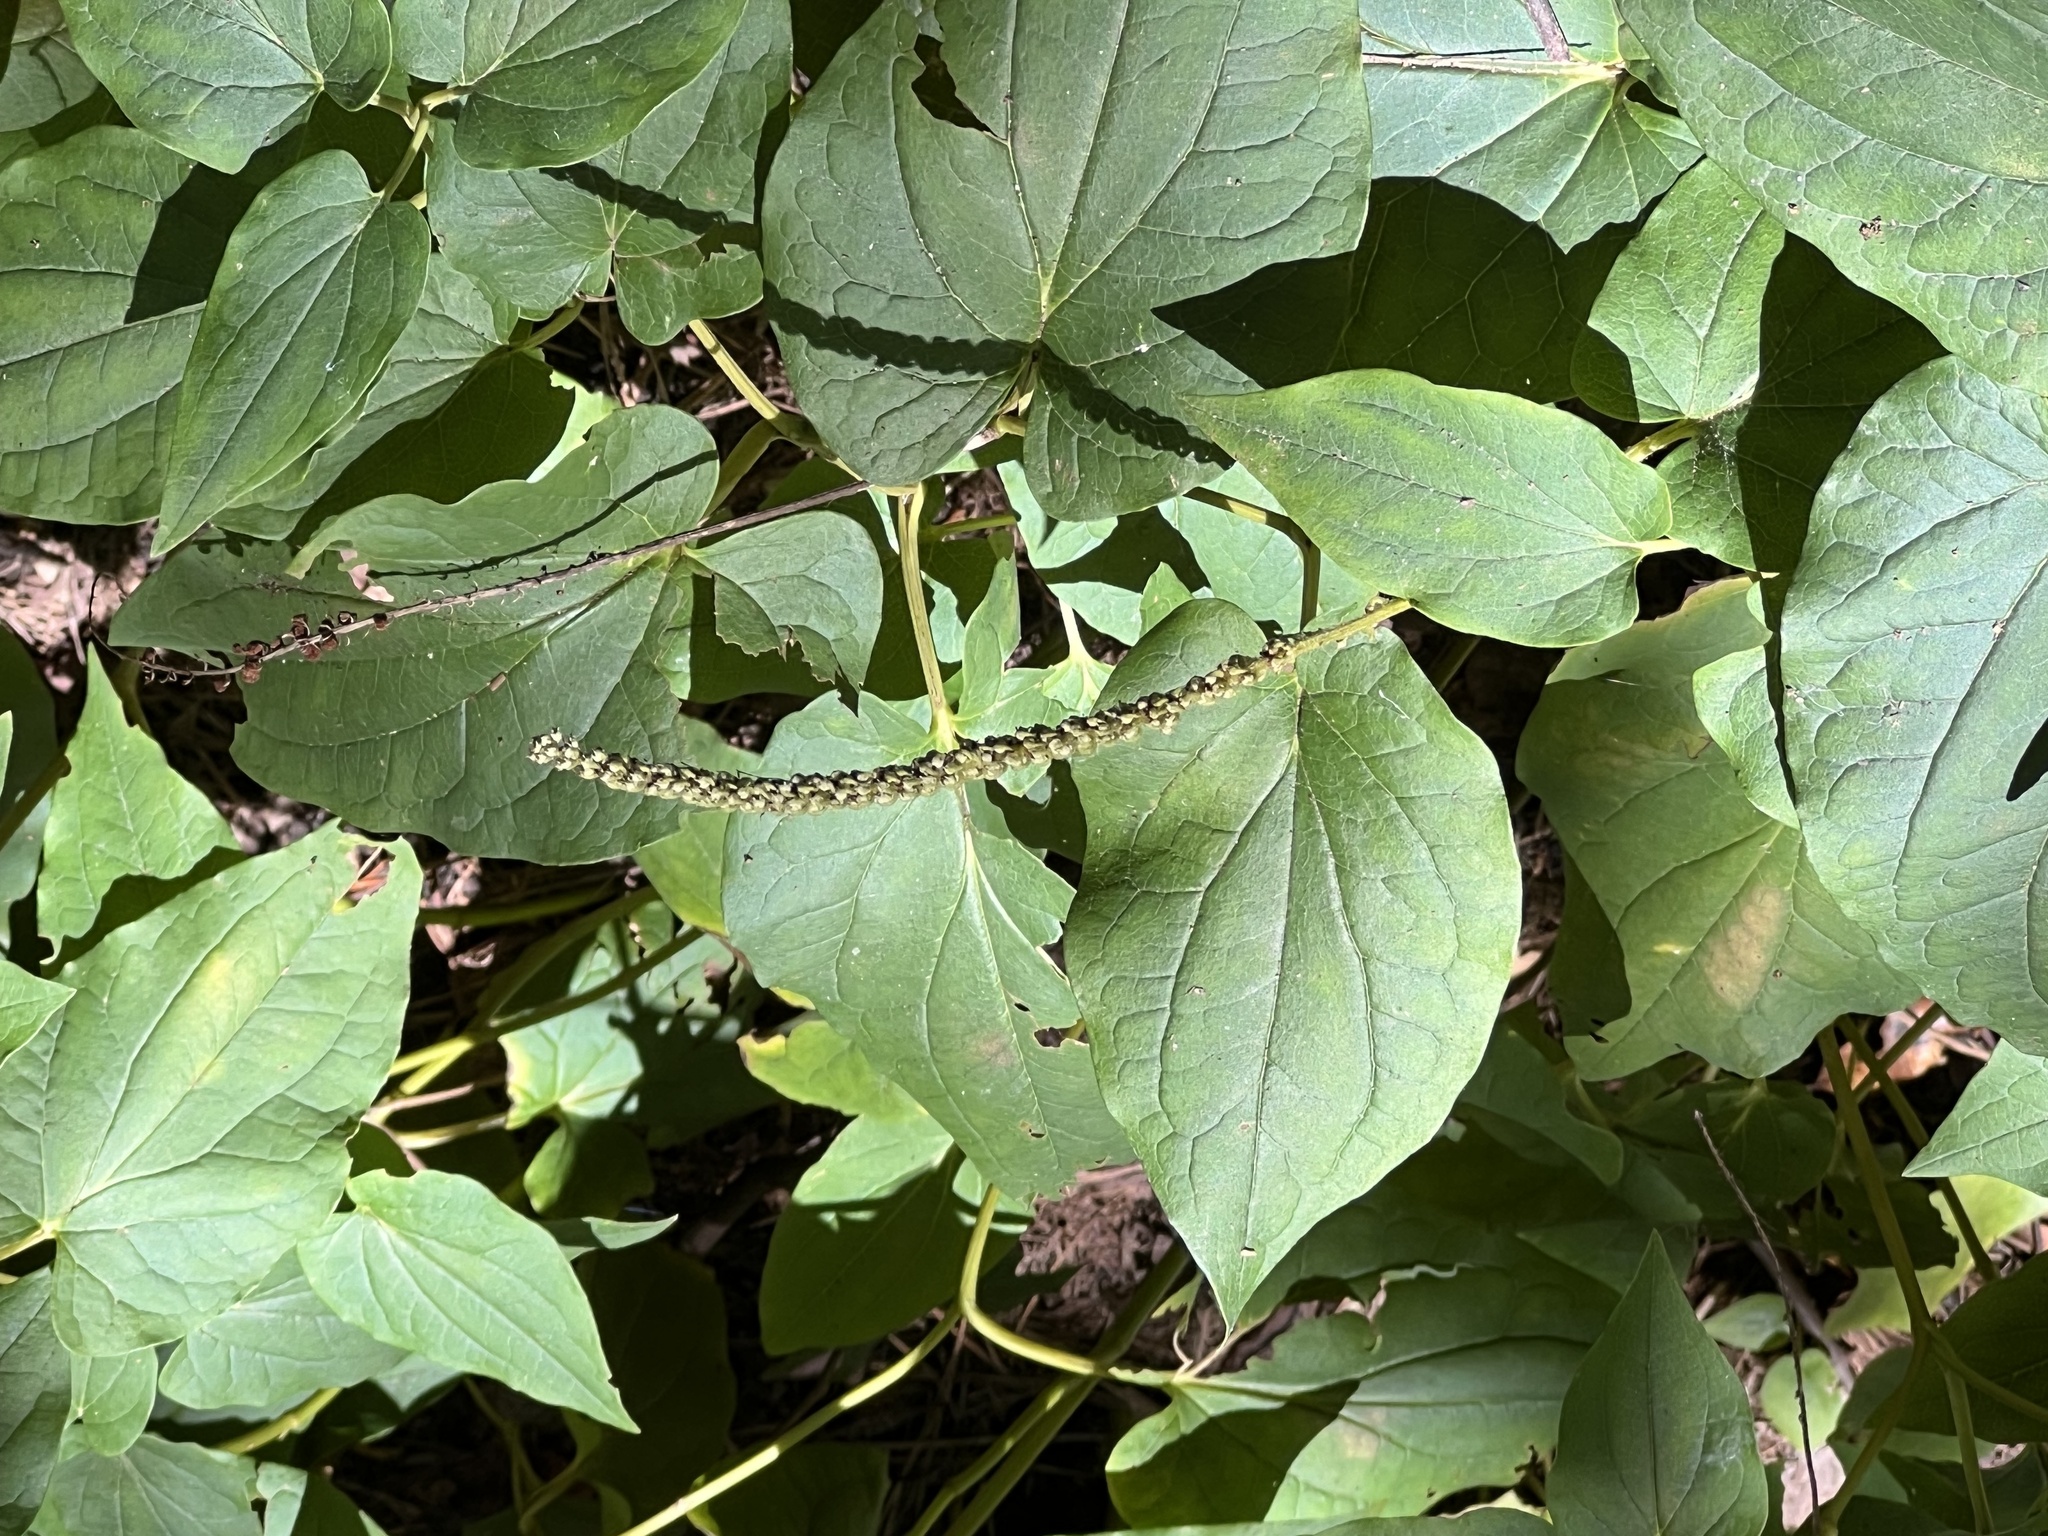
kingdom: Plantae
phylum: Tracheophyta
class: Magnoliopsida
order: Piperales
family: Saururaceae
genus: Saururus
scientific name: Saururus cernuus
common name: Lizard's-tail
